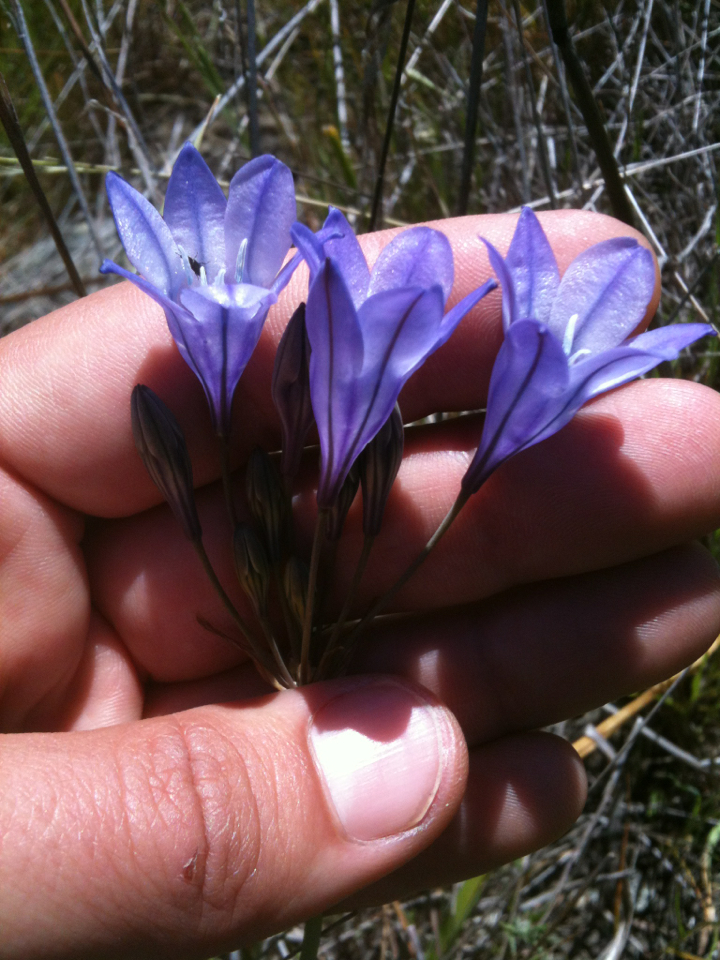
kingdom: Plantae
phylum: Tracheophyta
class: Liliopsida
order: Asparagales
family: Asparagaceae
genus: Triteleia
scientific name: Triteleia laxa
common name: Triplet-lily
